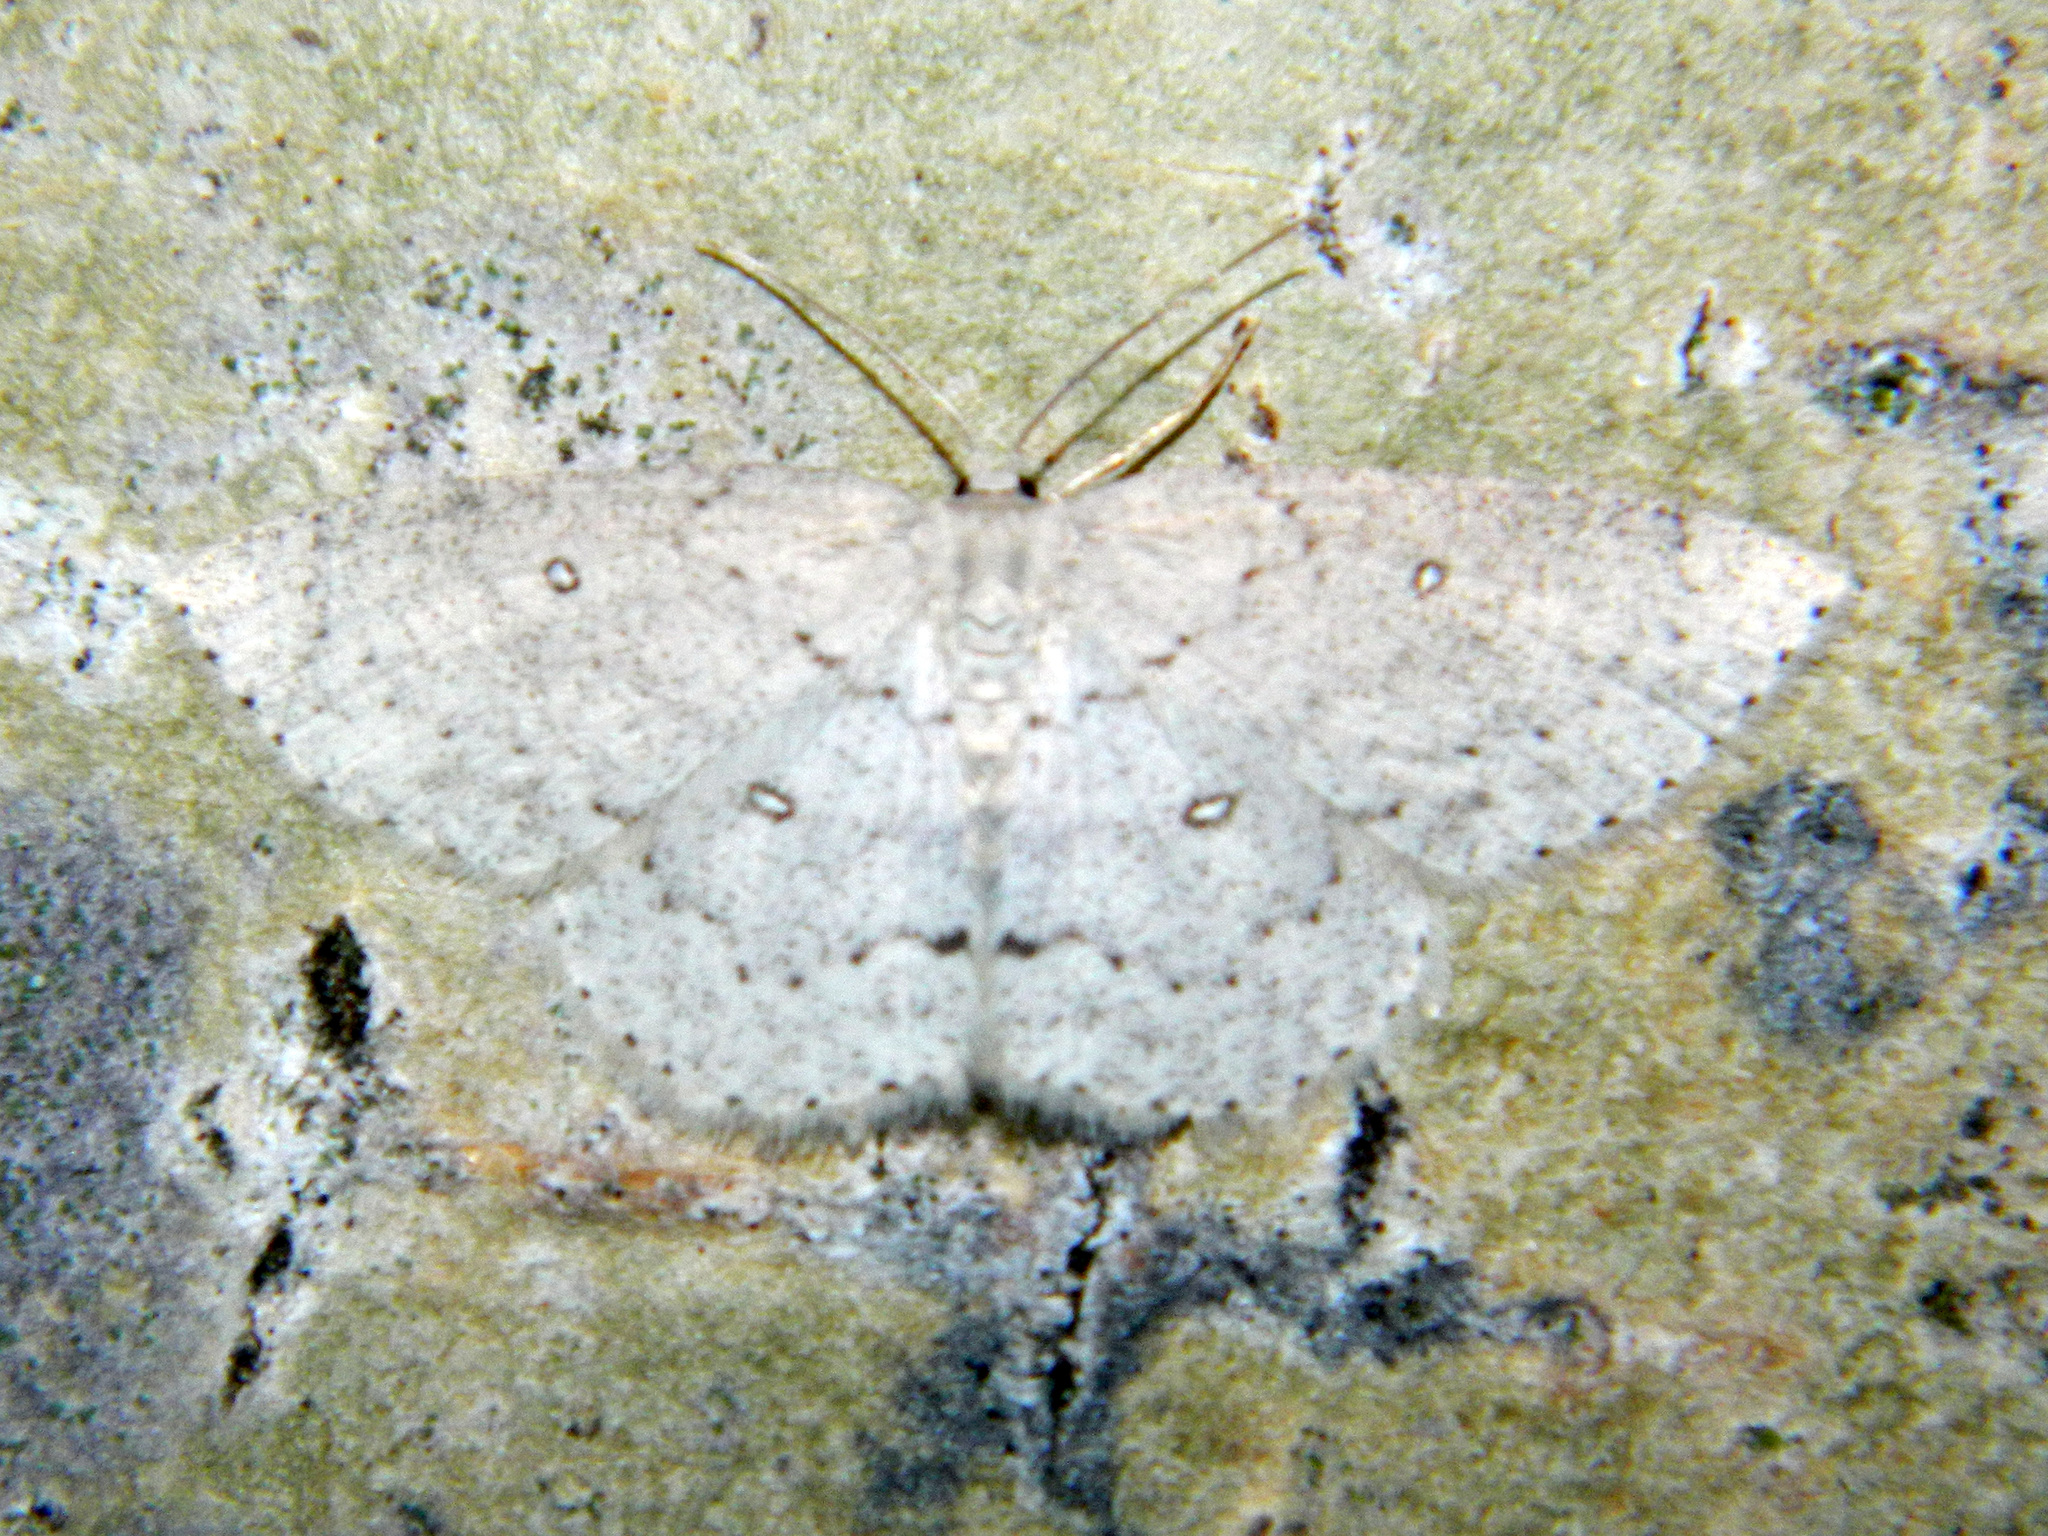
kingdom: Animalia
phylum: Arthropoda
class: Insecta
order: Lepidoptera
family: Geometridae
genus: Cyclophora
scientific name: Cyclophora pendulinaria
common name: Sweet fern geometer
